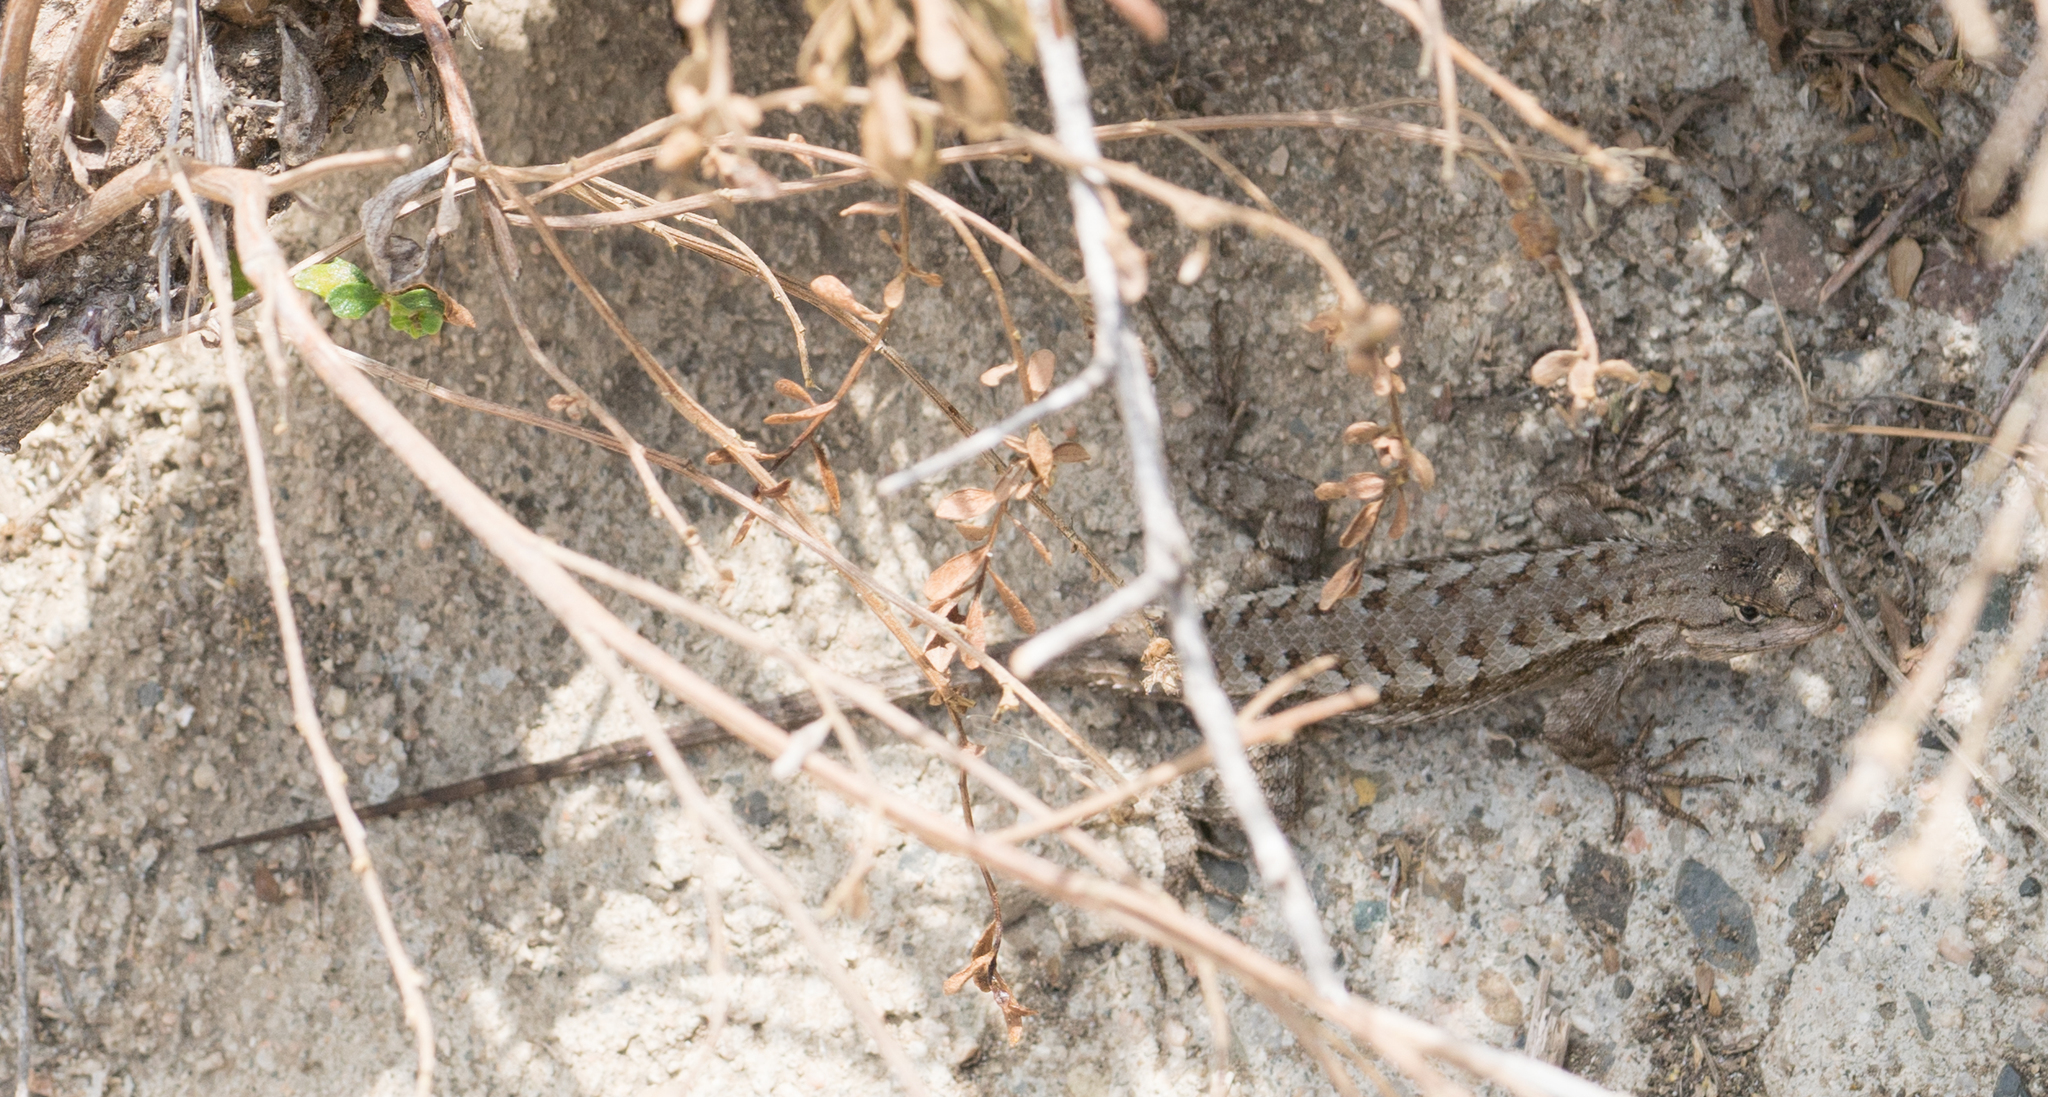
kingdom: Animalia
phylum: Chordata
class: Squamata
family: Phrynosomatidae
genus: Sceloporus
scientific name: Sceloporus occidentalis
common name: Western fence lizard
